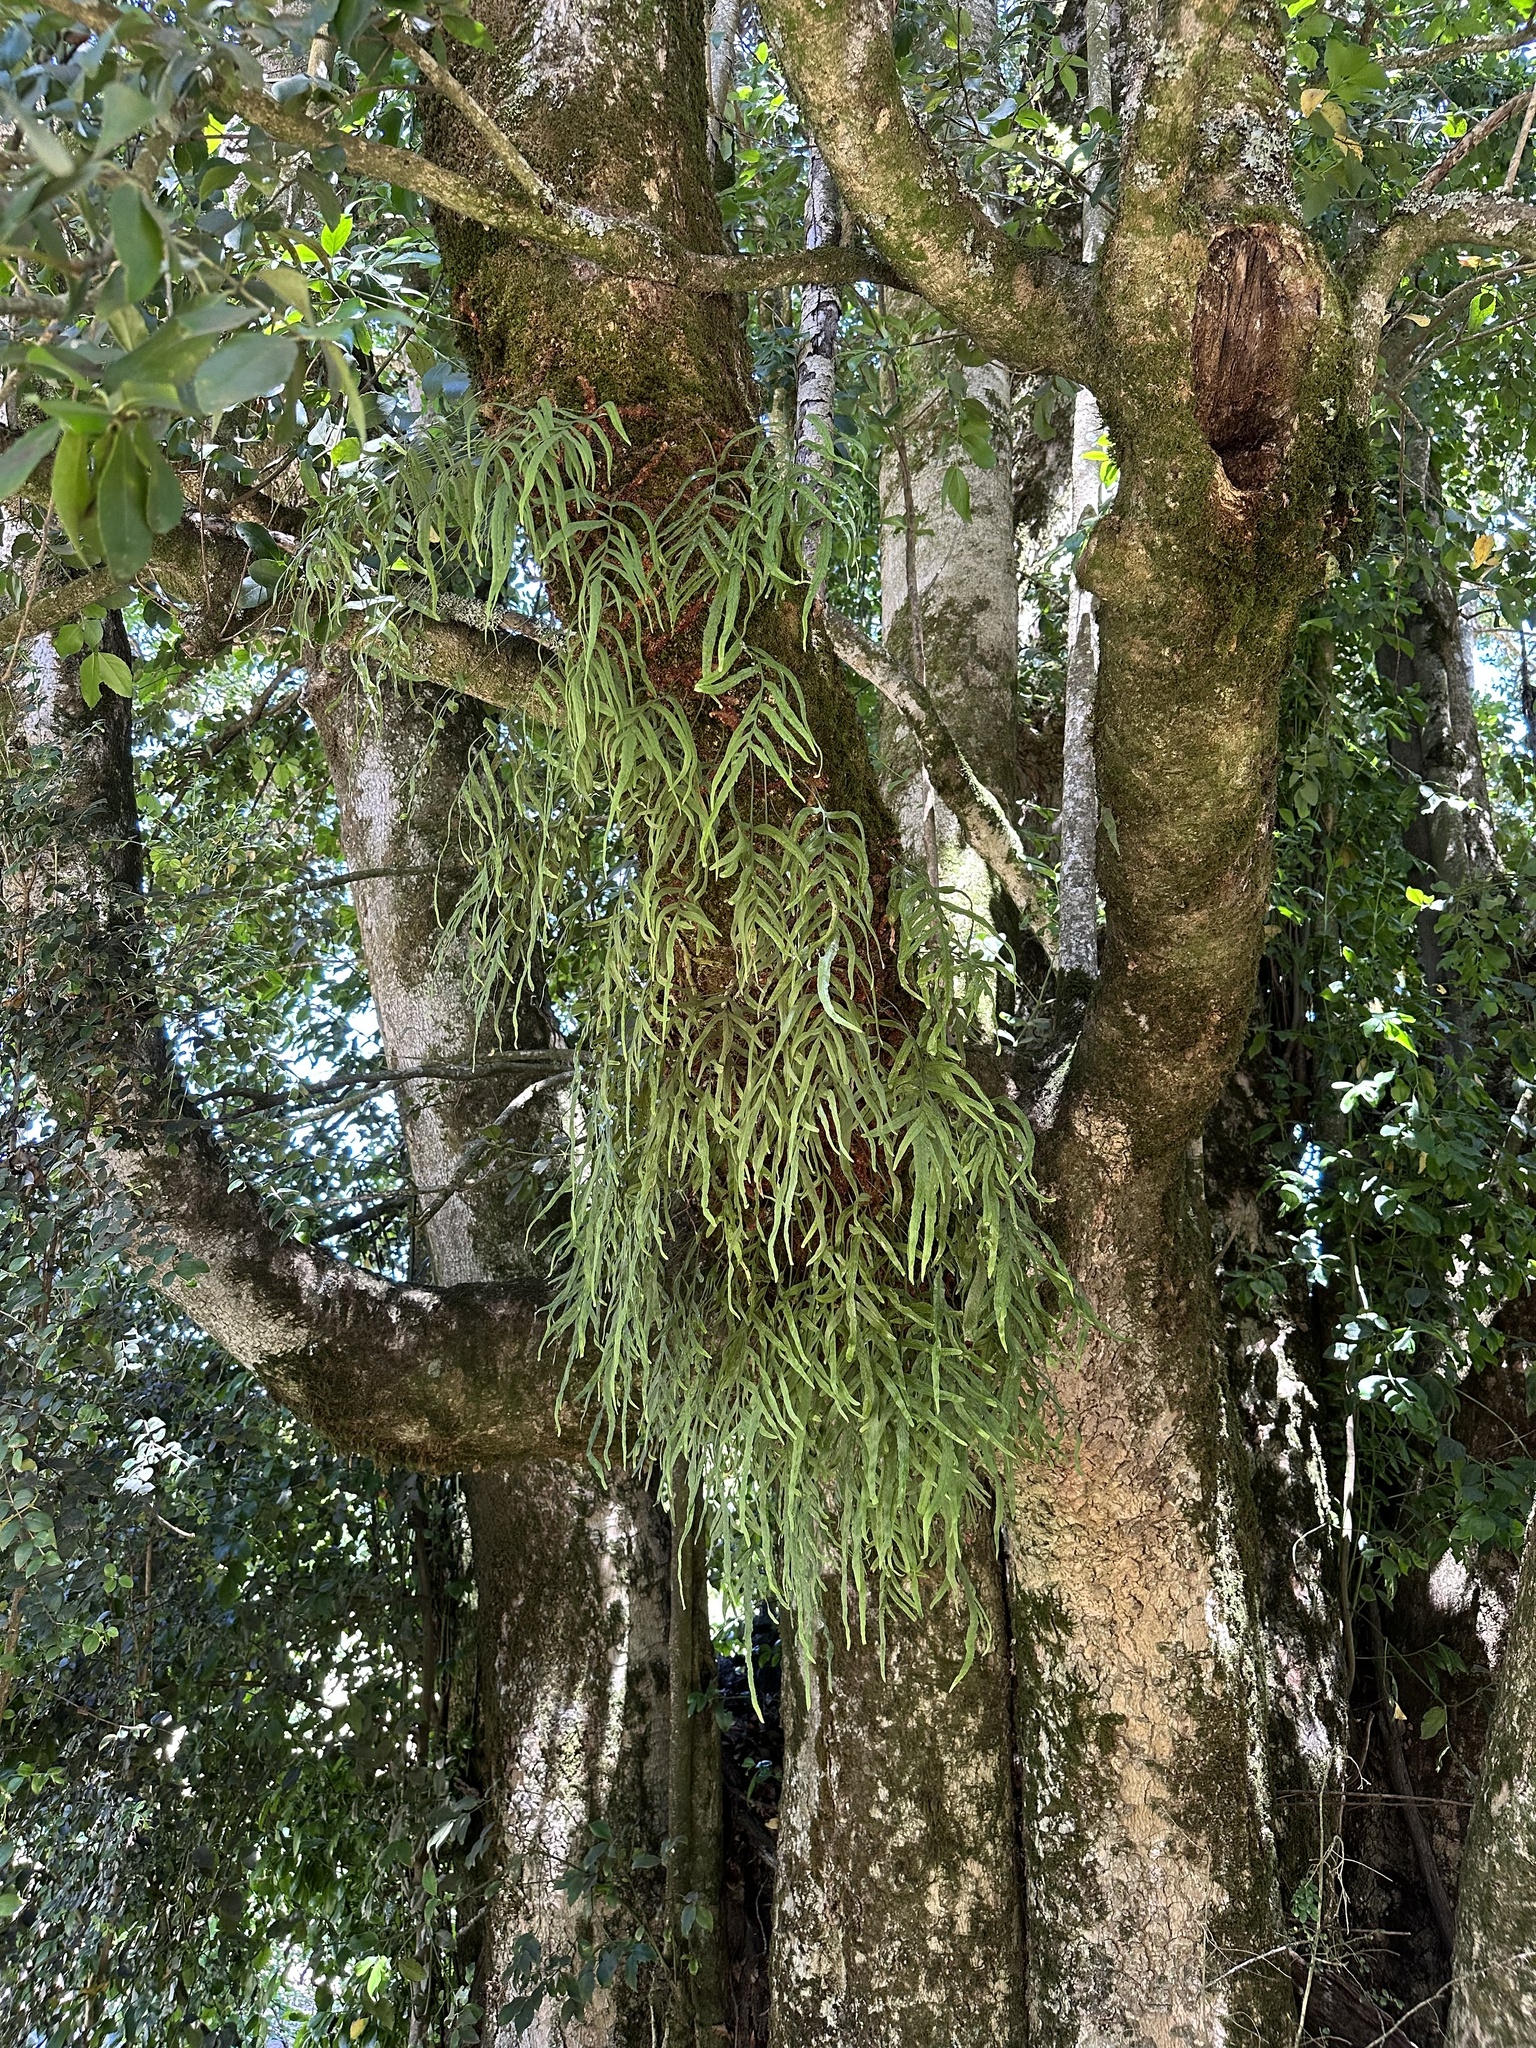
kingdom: Plantae
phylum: Tracheophyta
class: Polypodiopsida
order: Polypodiales
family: Polypodiaceae
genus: Synammia
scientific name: Synammia feuillei
